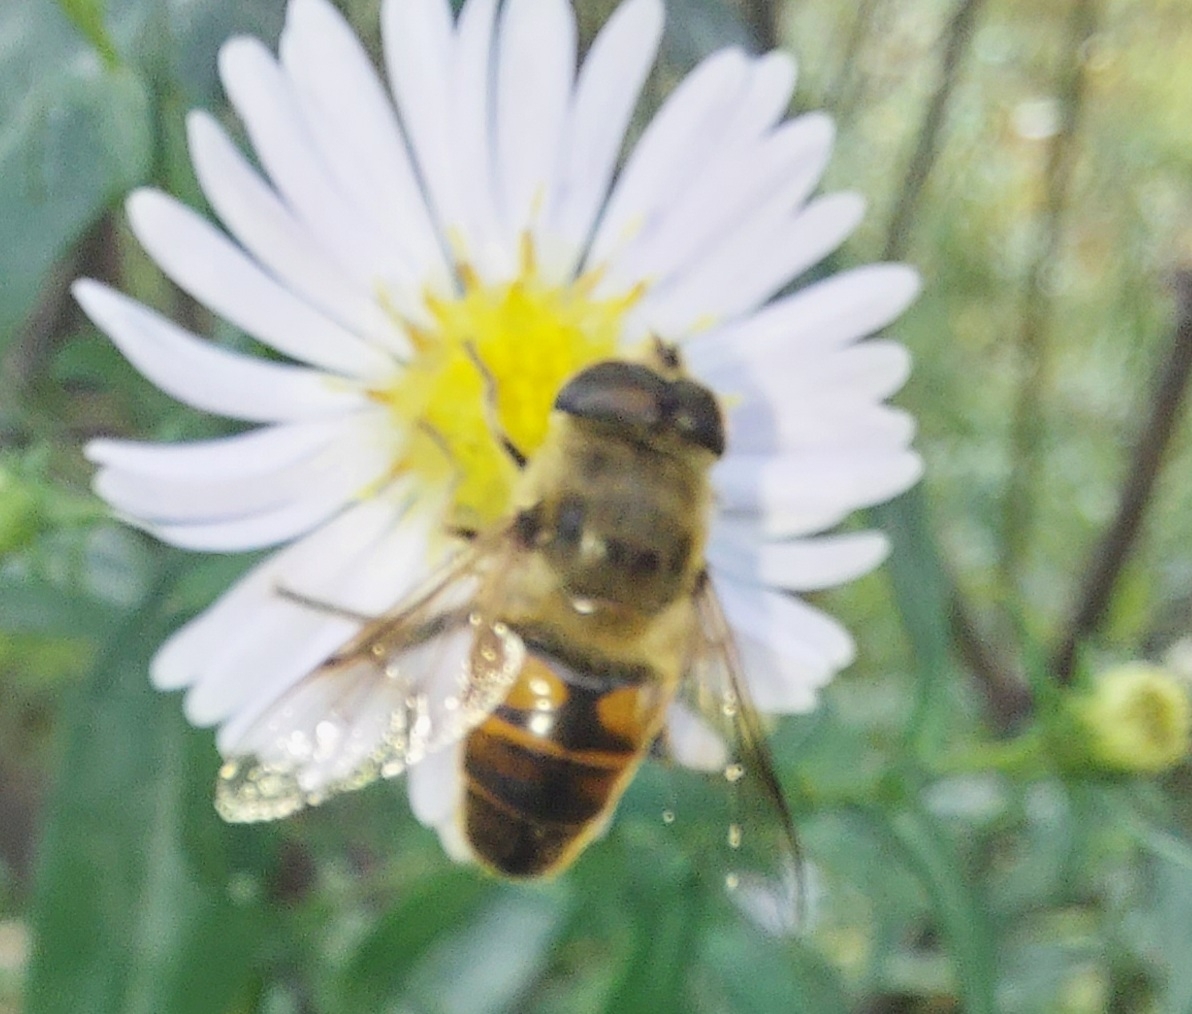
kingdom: Animalia
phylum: Arthropoda
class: Insecta
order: Diptera
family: Syrphidae
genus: Eristalis
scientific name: Eristalis tenax
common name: Drone fly
